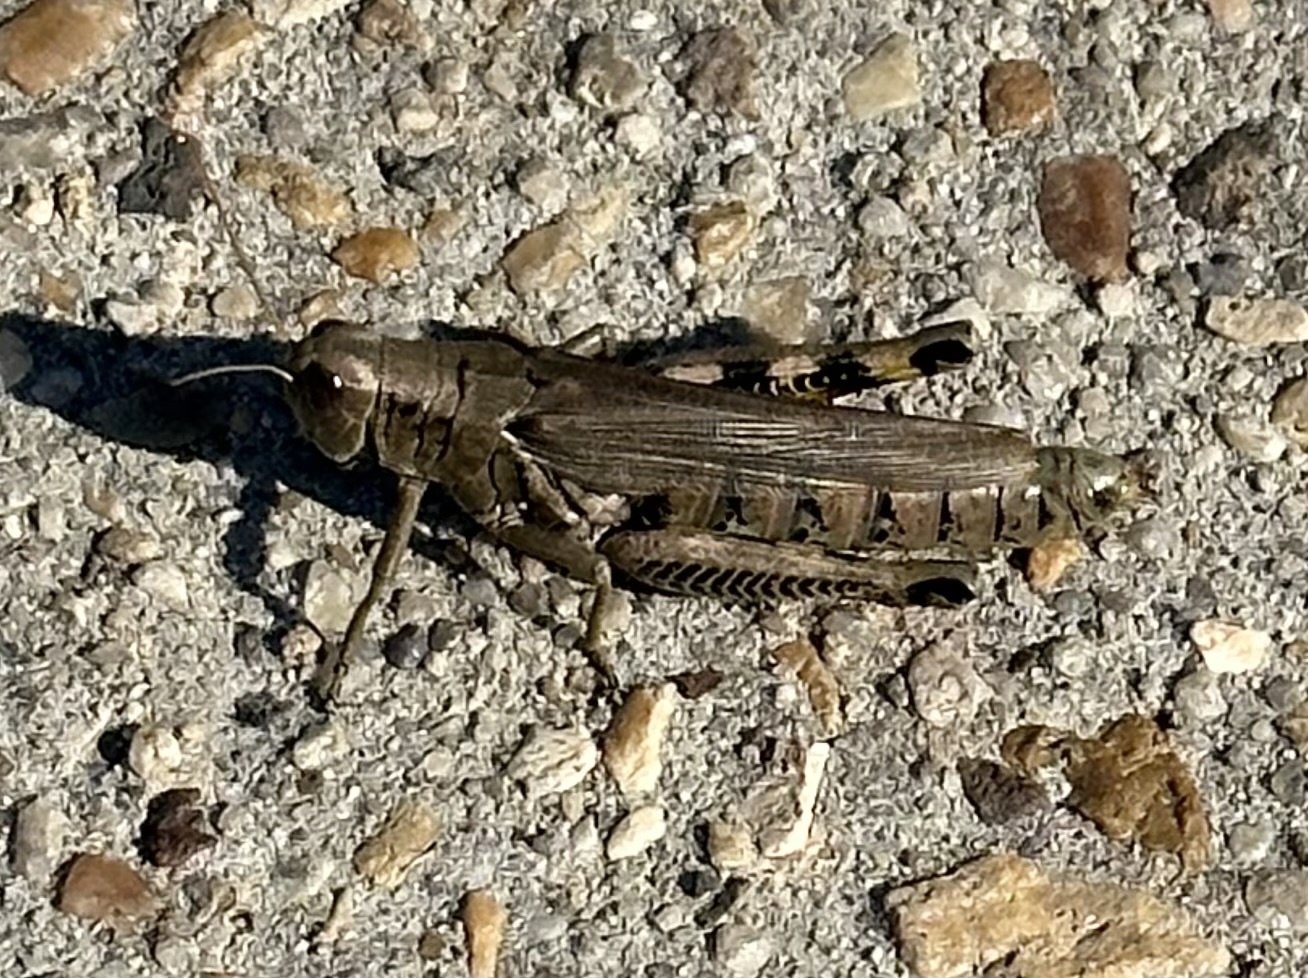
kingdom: Animalia
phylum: Arthropoda
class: Insecta
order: Orthoptera
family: Acrididae
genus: Melanoplus
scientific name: Melanoplus differentialis
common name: Differential grasshopper
